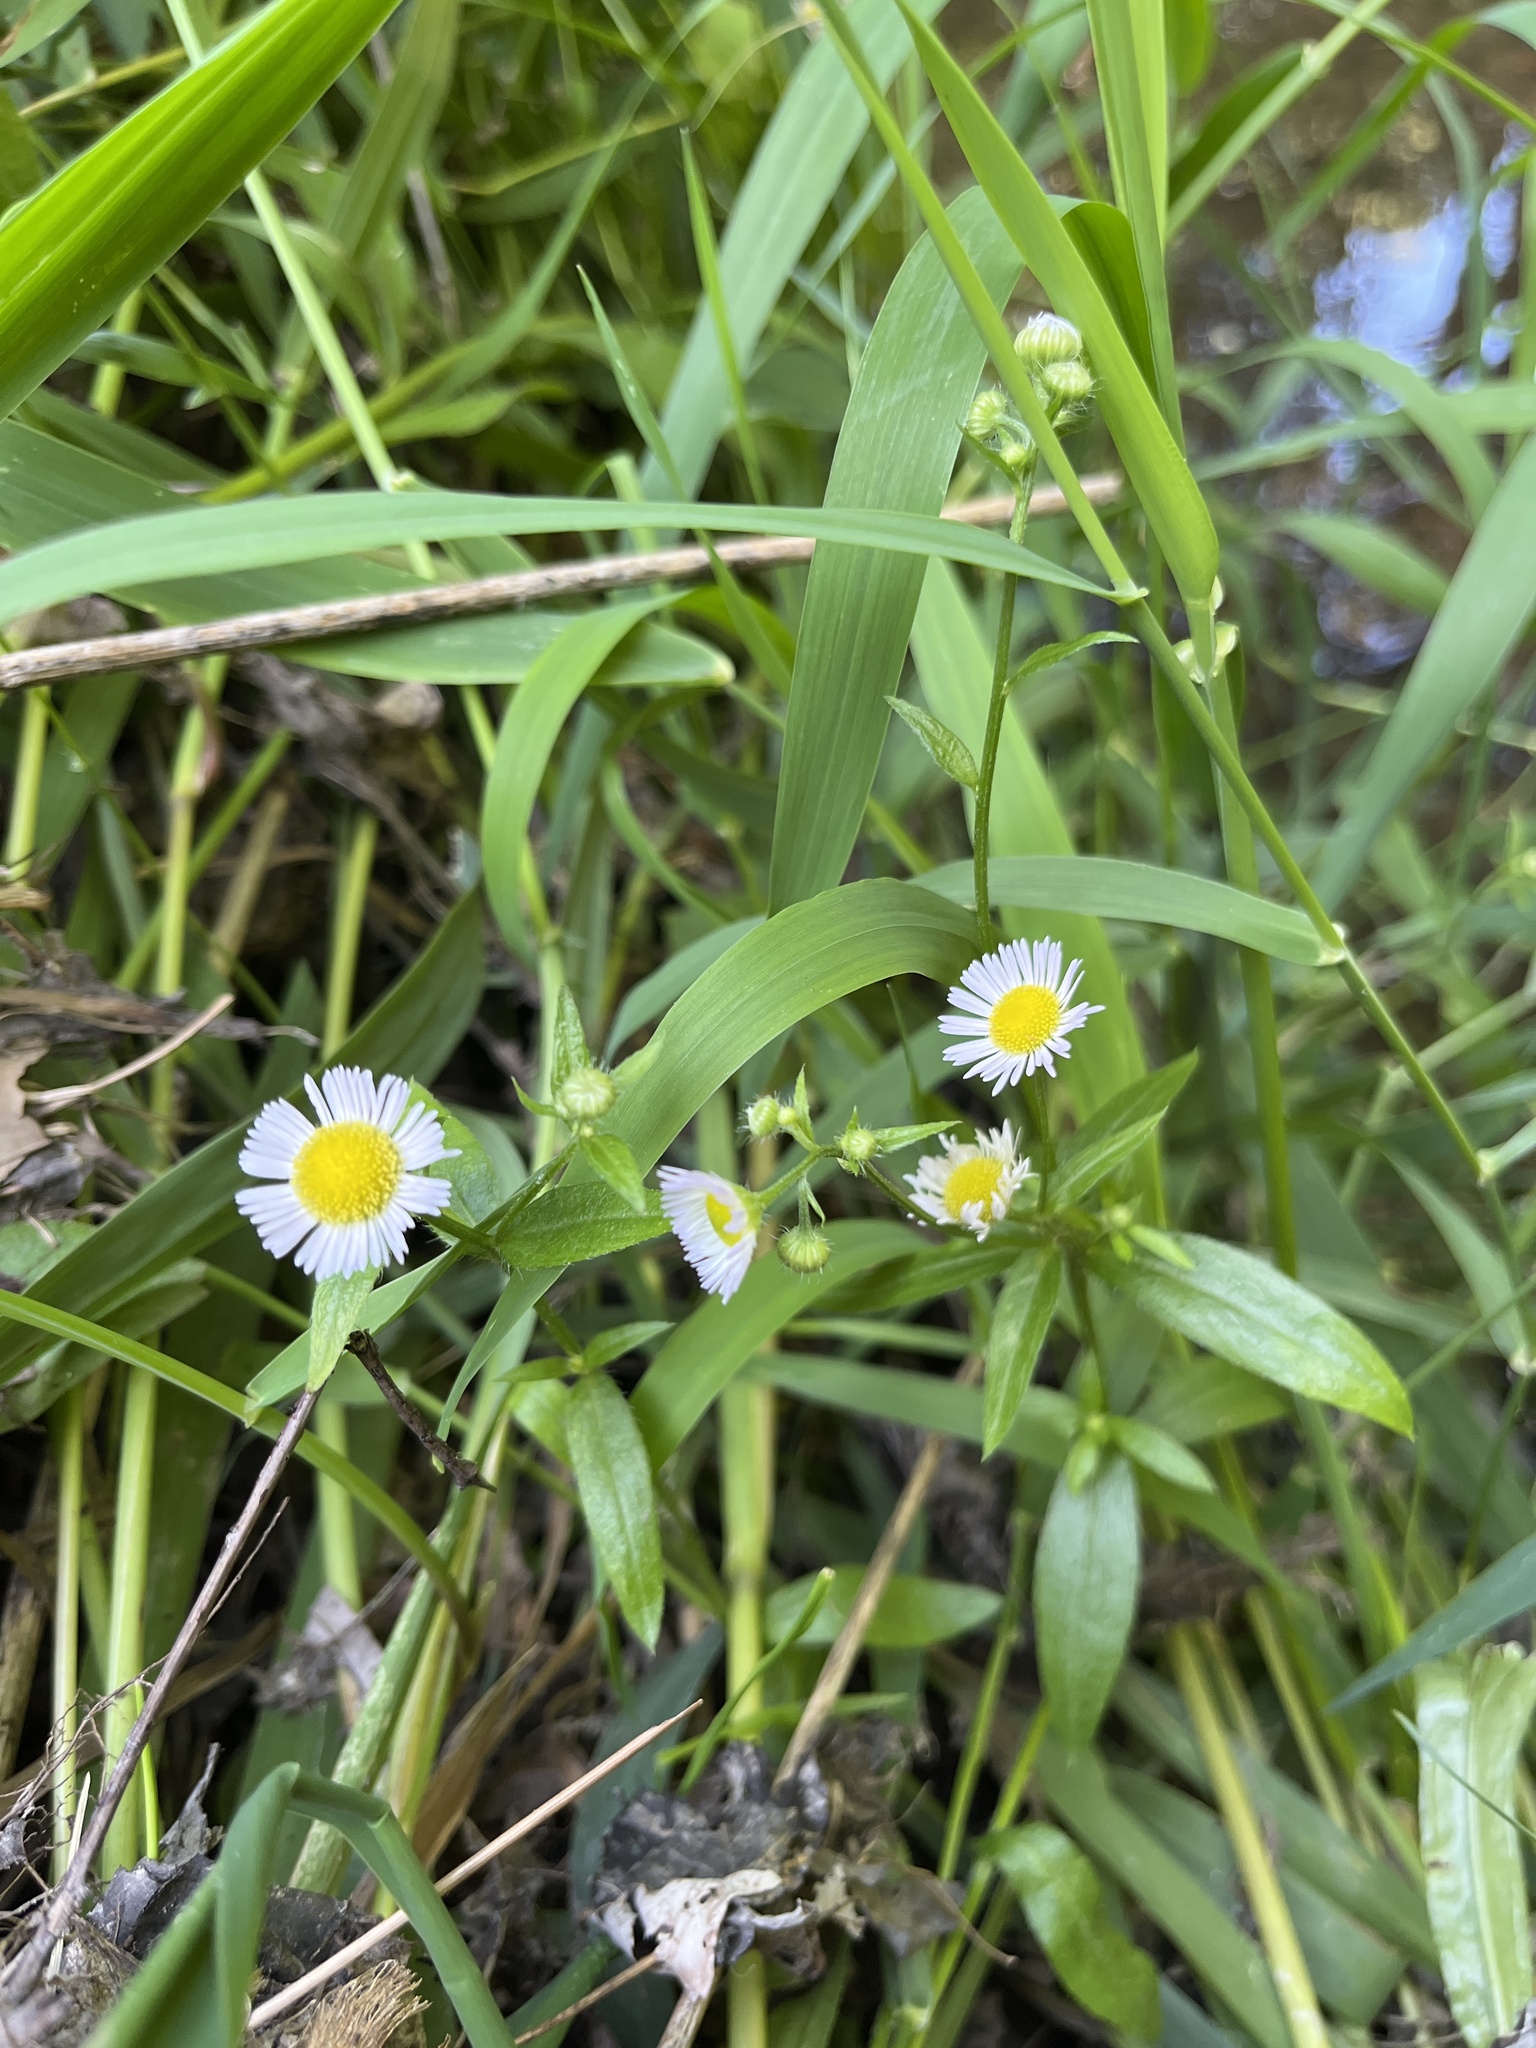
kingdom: Plantae
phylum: Tracheophyta
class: Magnoliopsida
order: Asterales
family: Asteraceae
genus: Erigeron
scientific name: Erigeron strigosus
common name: Common eastern fleabane
